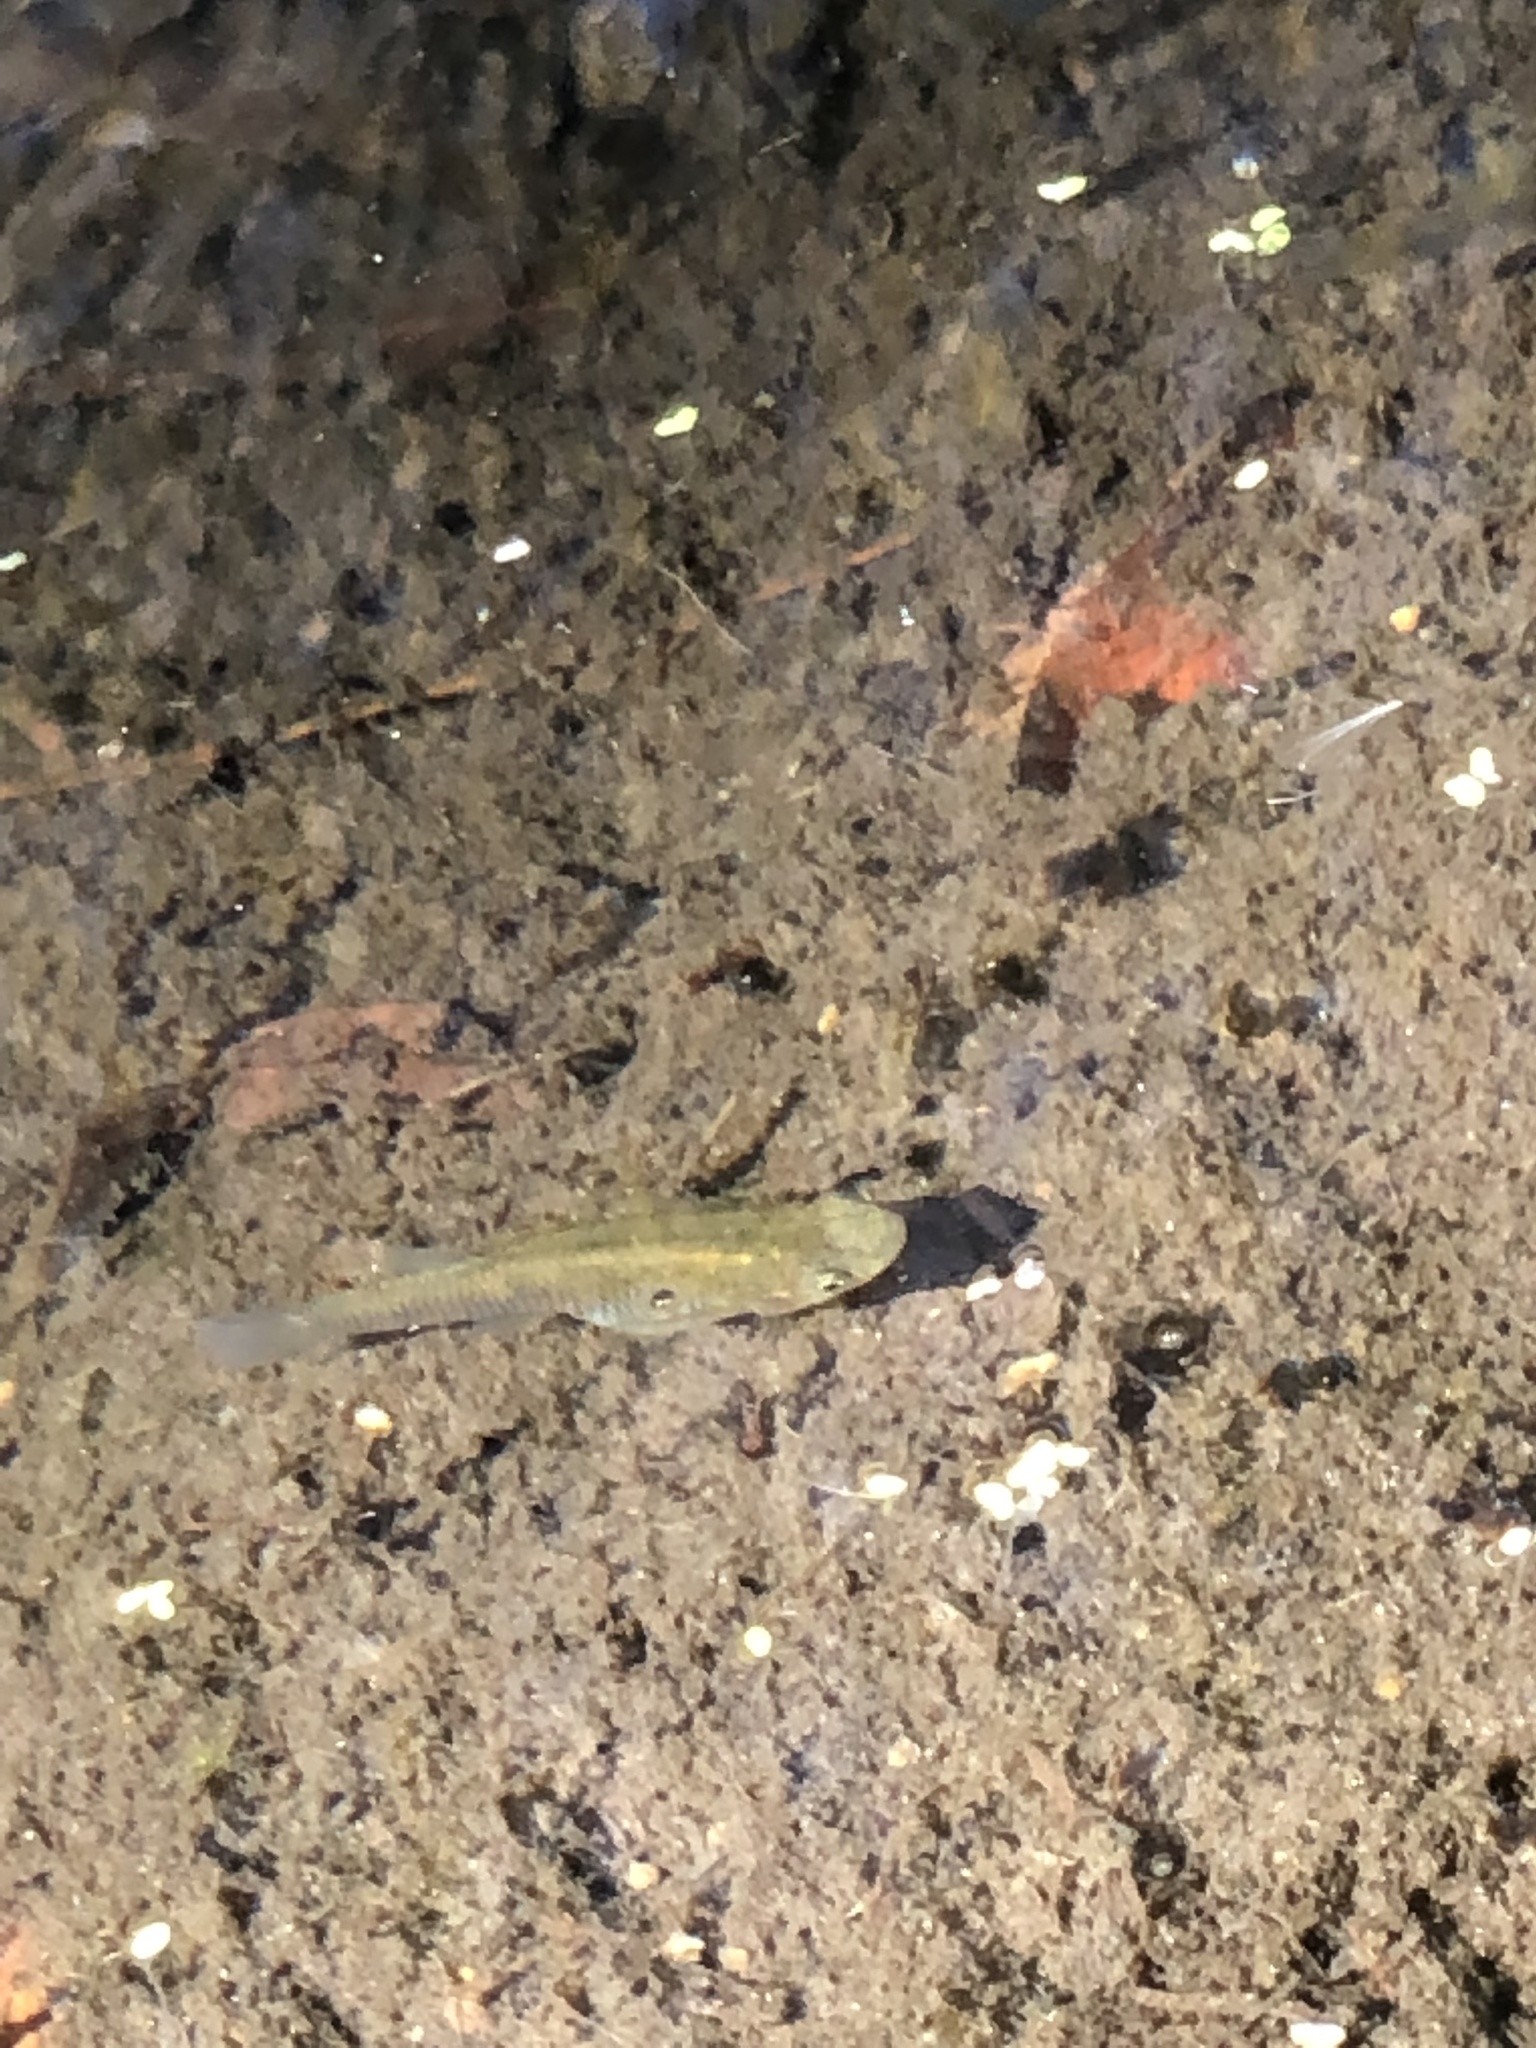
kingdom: Animalia
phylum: Chordata
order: Cyprinodontiformes
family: Poeciliidae
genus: Gambusia
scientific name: Gambusia affinis
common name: Mosquitofish
